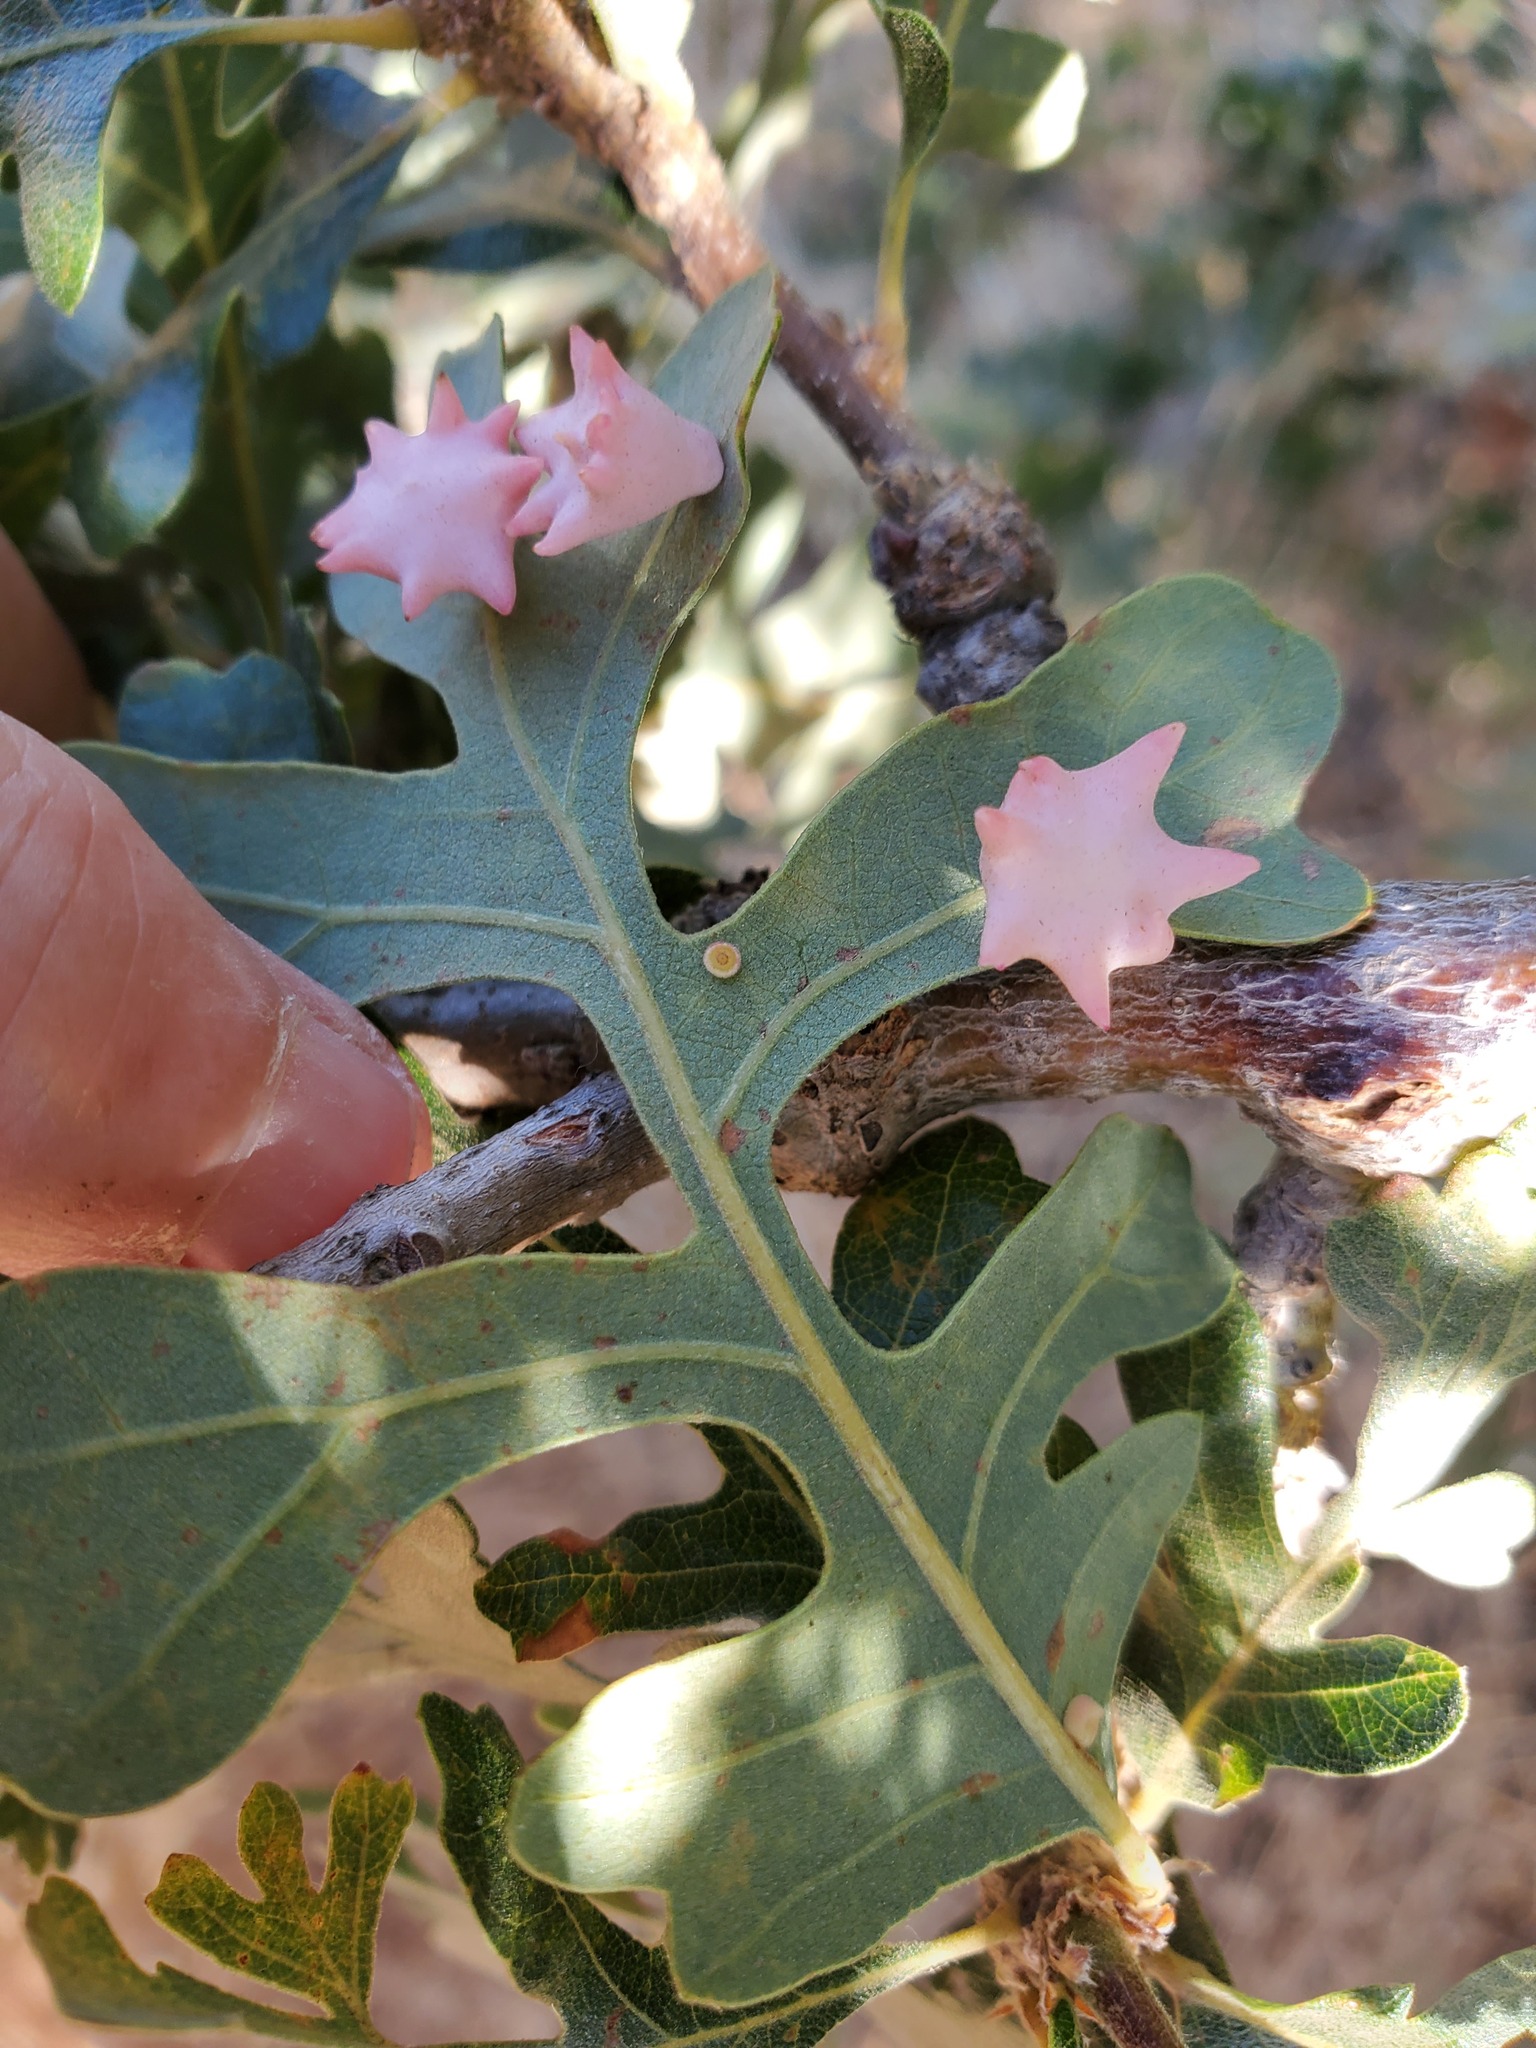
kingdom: Animalia
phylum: Arthropoda
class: Insecta
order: Hymenoptera
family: Cynipidae
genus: Cynips
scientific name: Cynips douglasi
